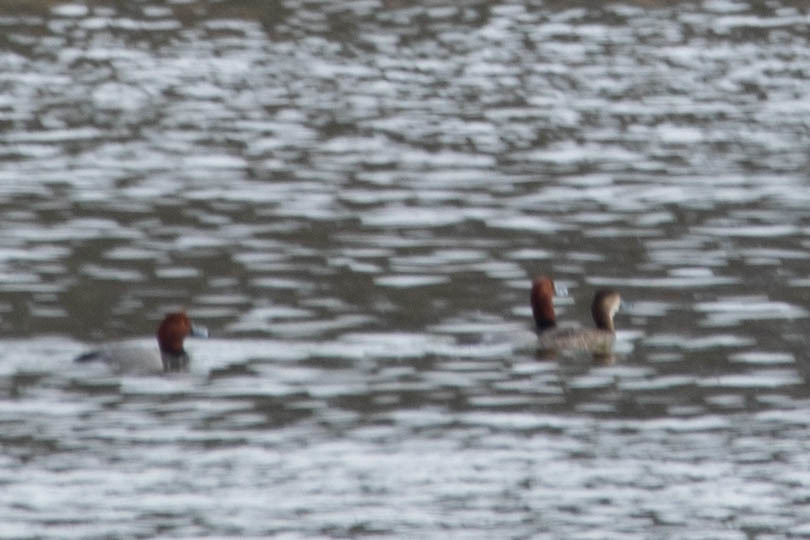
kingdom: Animalia
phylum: Chordata
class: Aves
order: Anseriformes
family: Anatidae
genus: Aythya
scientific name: Aythya americana
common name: Redhead
